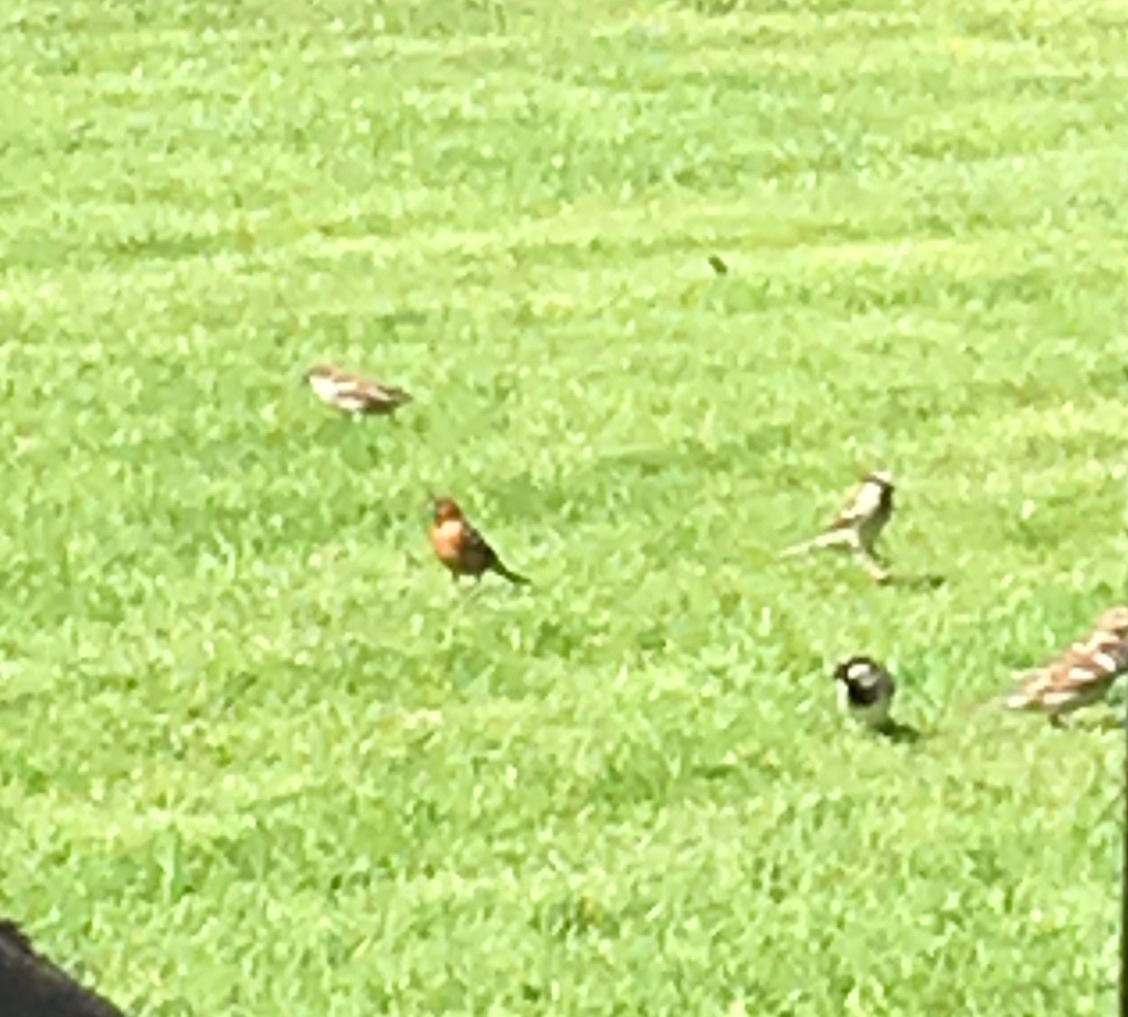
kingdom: Animalia
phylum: Chordata
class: Aves
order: Passeriformes
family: Fringillidae
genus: Fringilla
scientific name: Fringilla coelebs
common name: Common chaffinch
